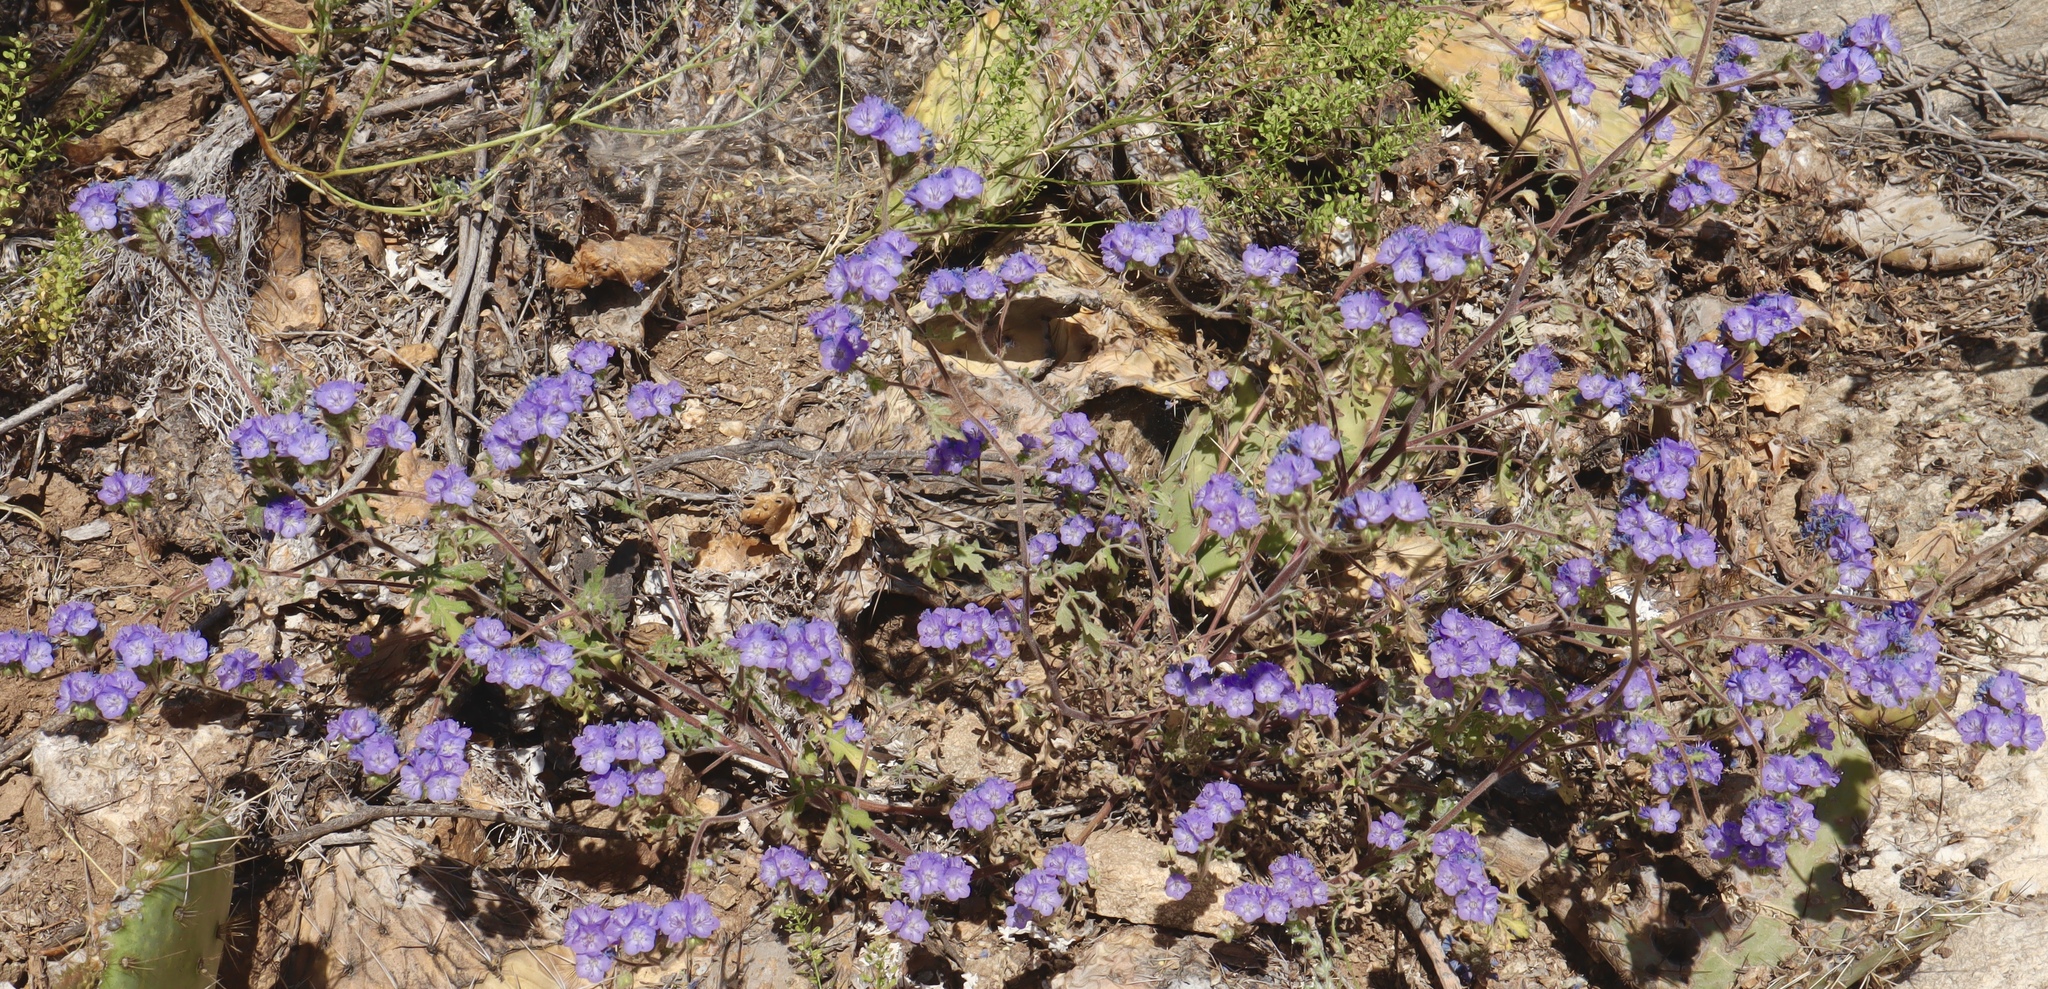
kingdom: Plantae
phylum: Tracheophyta
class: Magnoliopsida
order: Boraginales
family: Hydrophyllaceae
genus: Phacelia
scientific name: Phacelia distans
